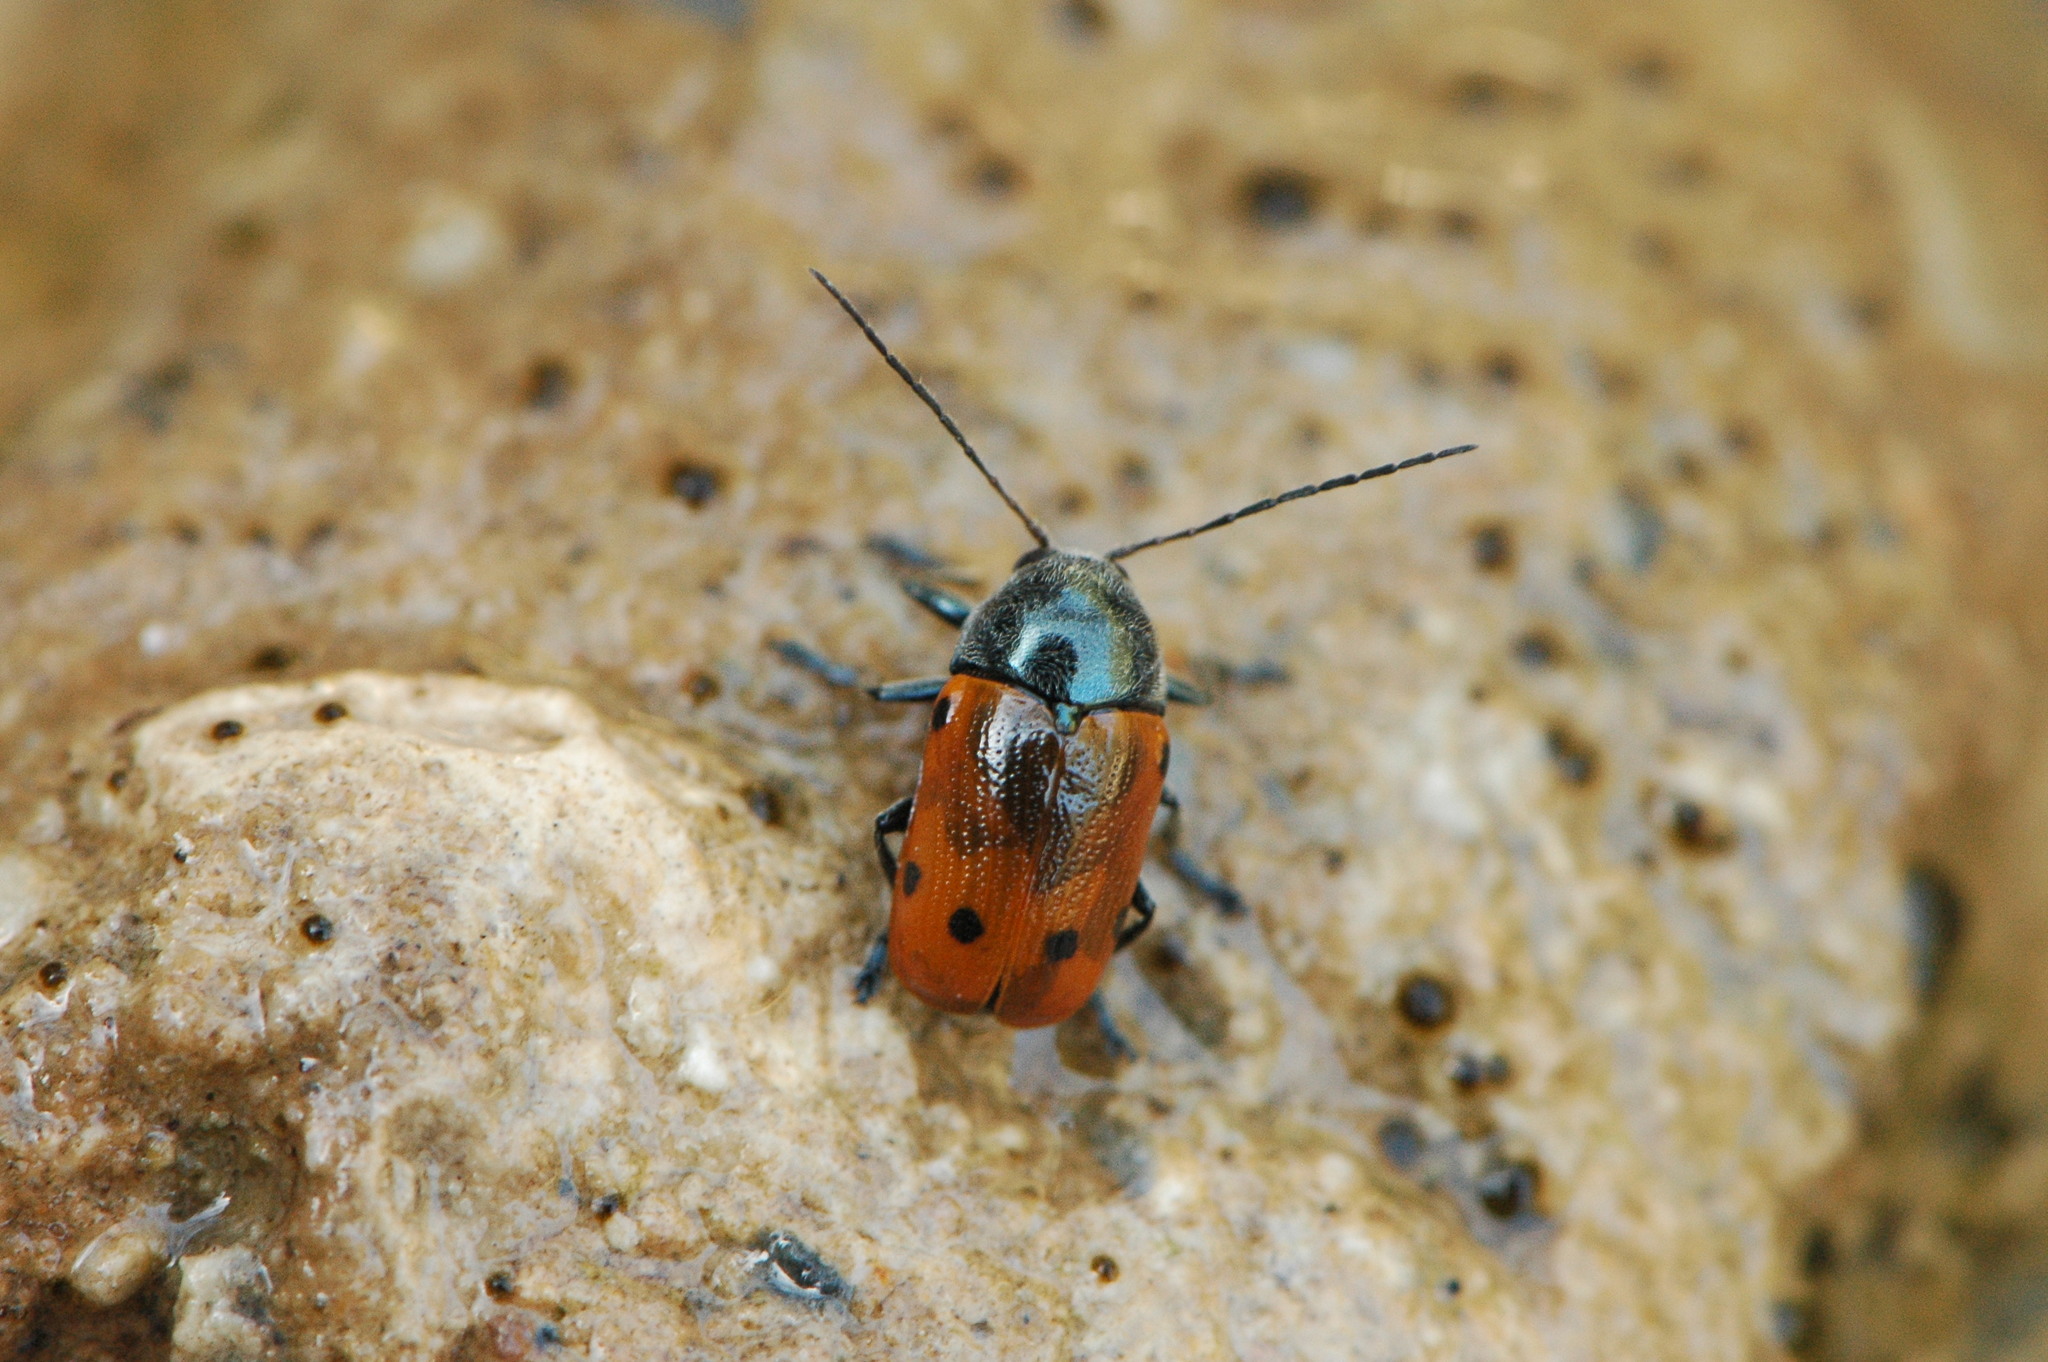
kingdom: Animalia
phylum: Arthropoda
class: Insecta
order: Coleoptera
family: Chrysomelidae
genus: Cryptocephalus
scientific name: Cryptocephalus sexmaculatus
